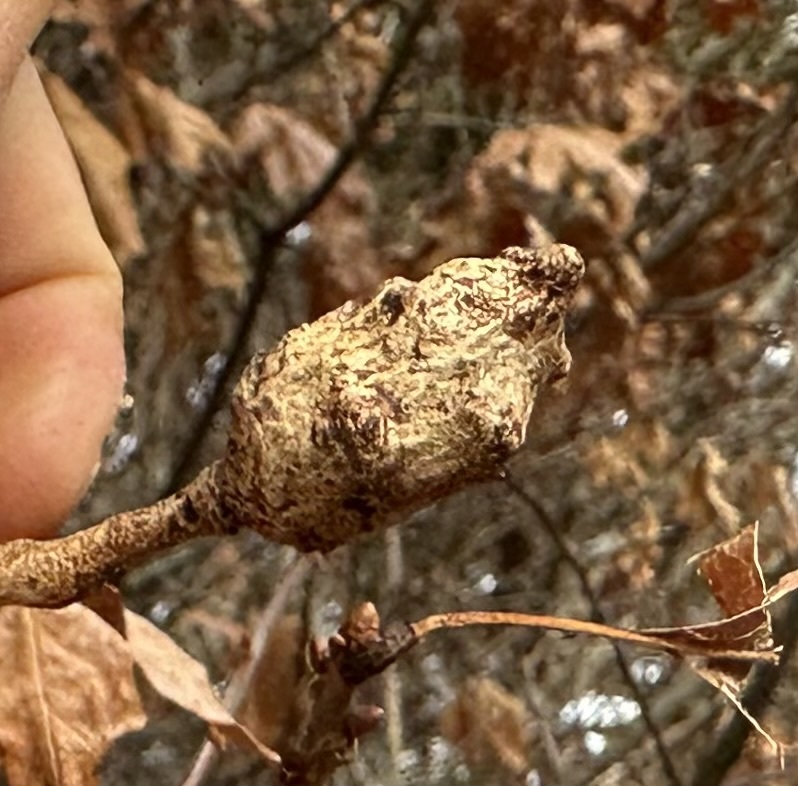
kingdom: Animalia
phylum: Arthropoda
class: Insecta
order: Hymenoptera
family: Cynipidae
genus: Neuroterus
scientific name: Neuroterus quercusbaccarum
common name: Common spangle gall
